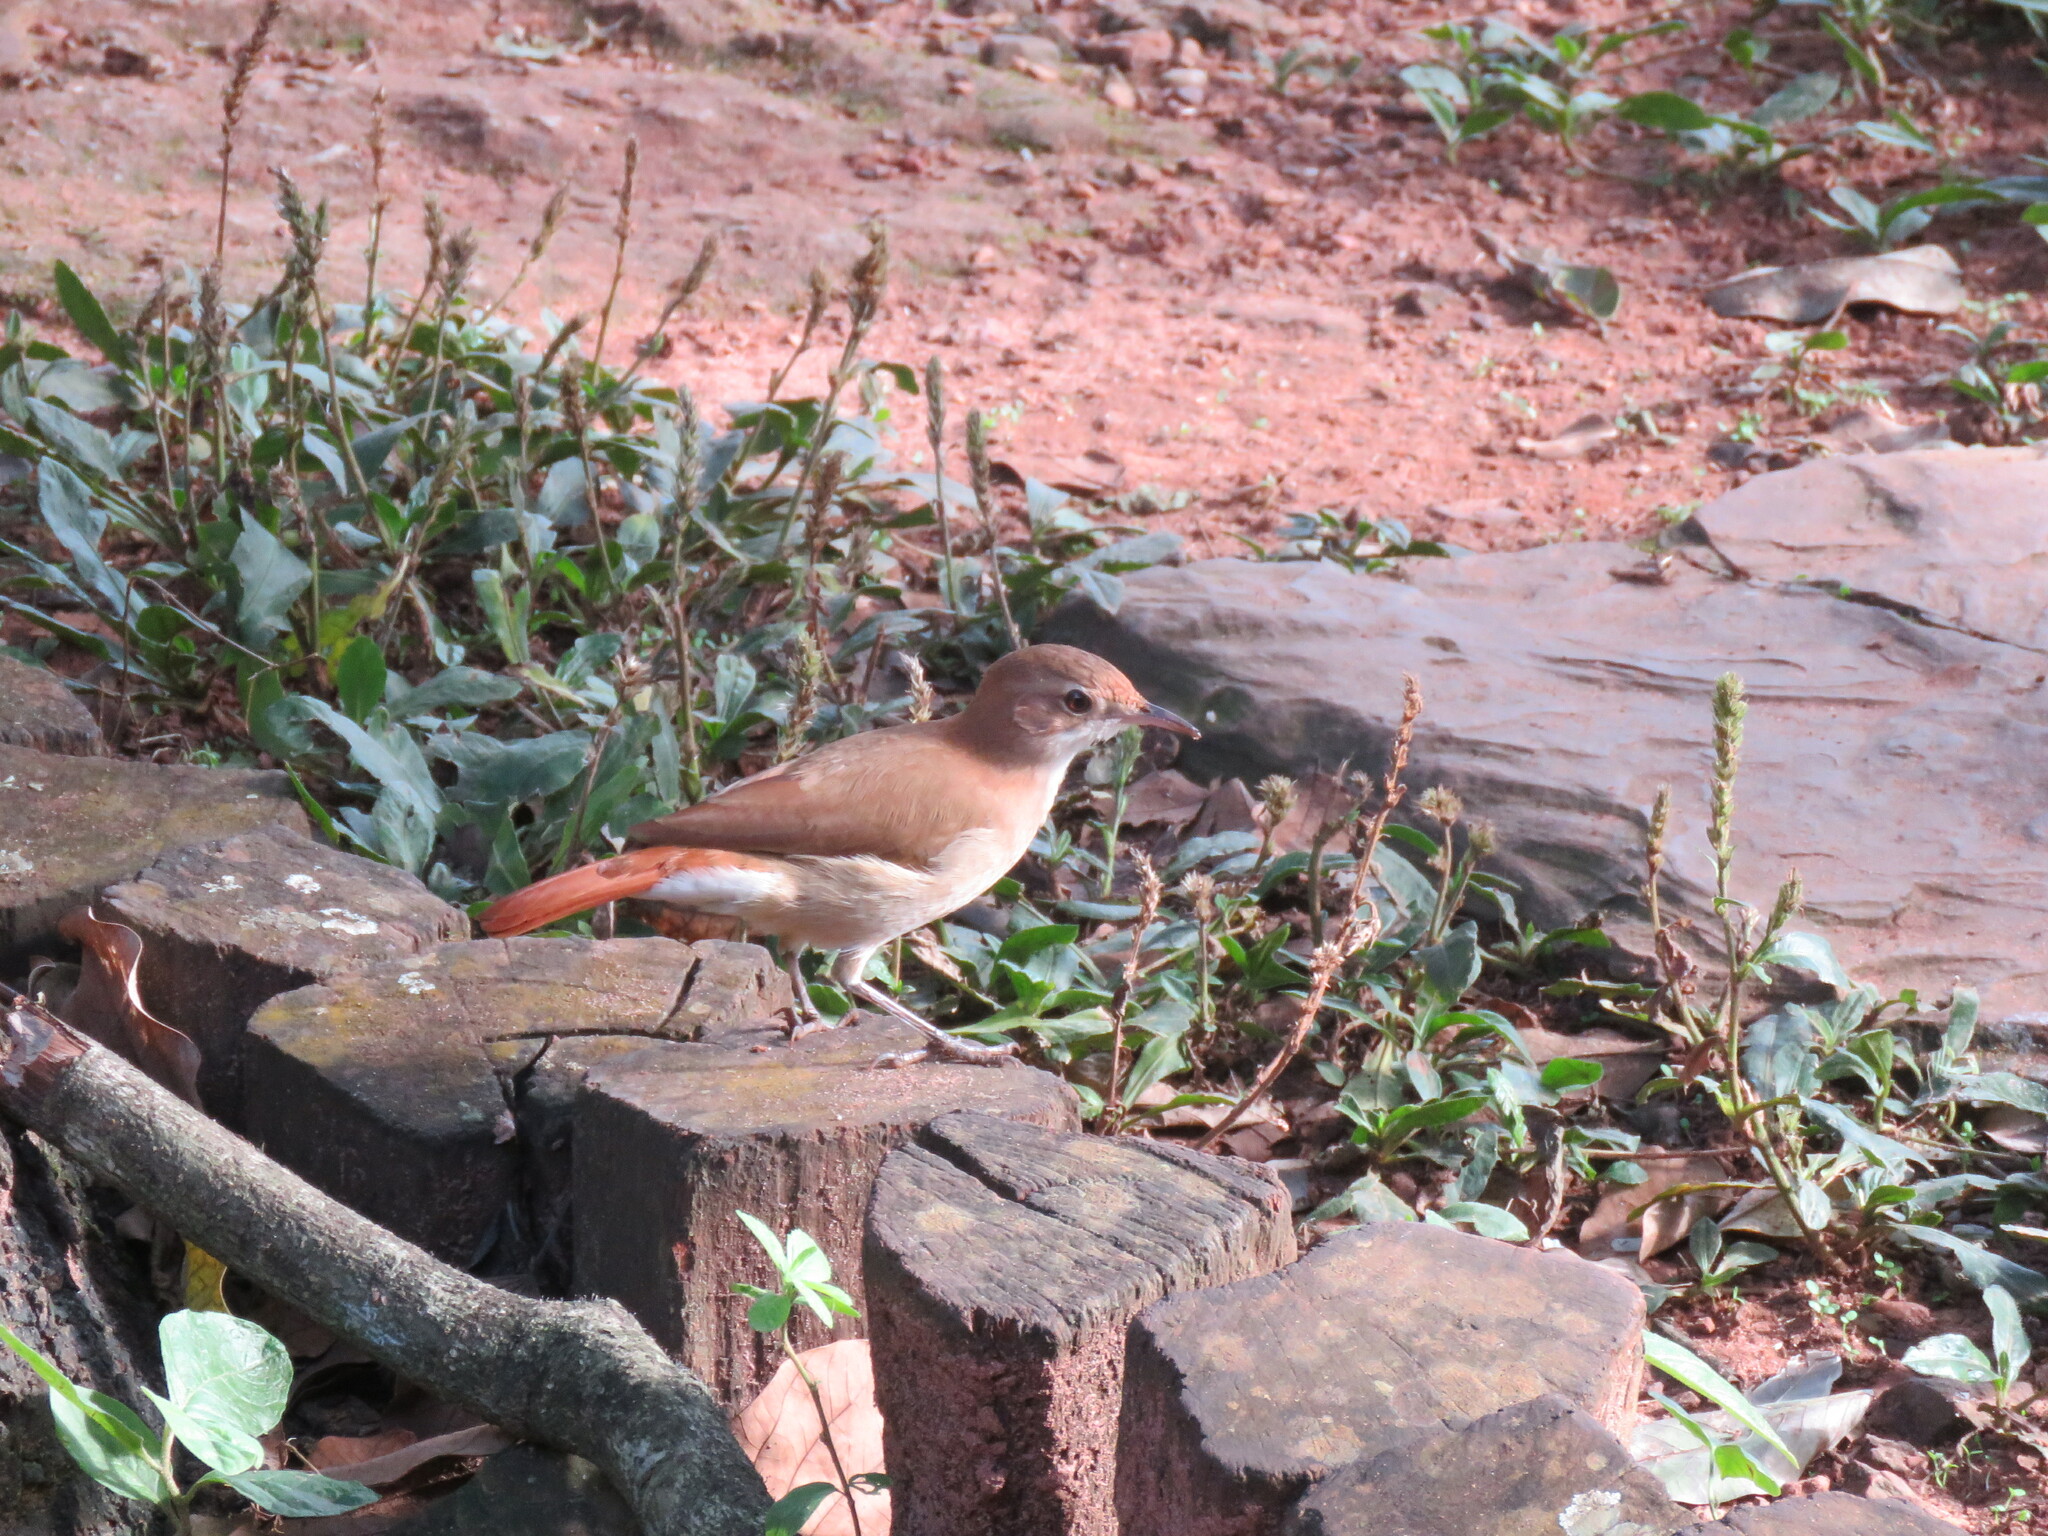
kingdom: Animalia
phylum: Chordata
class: Aves
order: Passeriformes
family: Furnariidae
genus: Furnarius
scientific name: Furnarius rufus
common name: Rufous hornero
